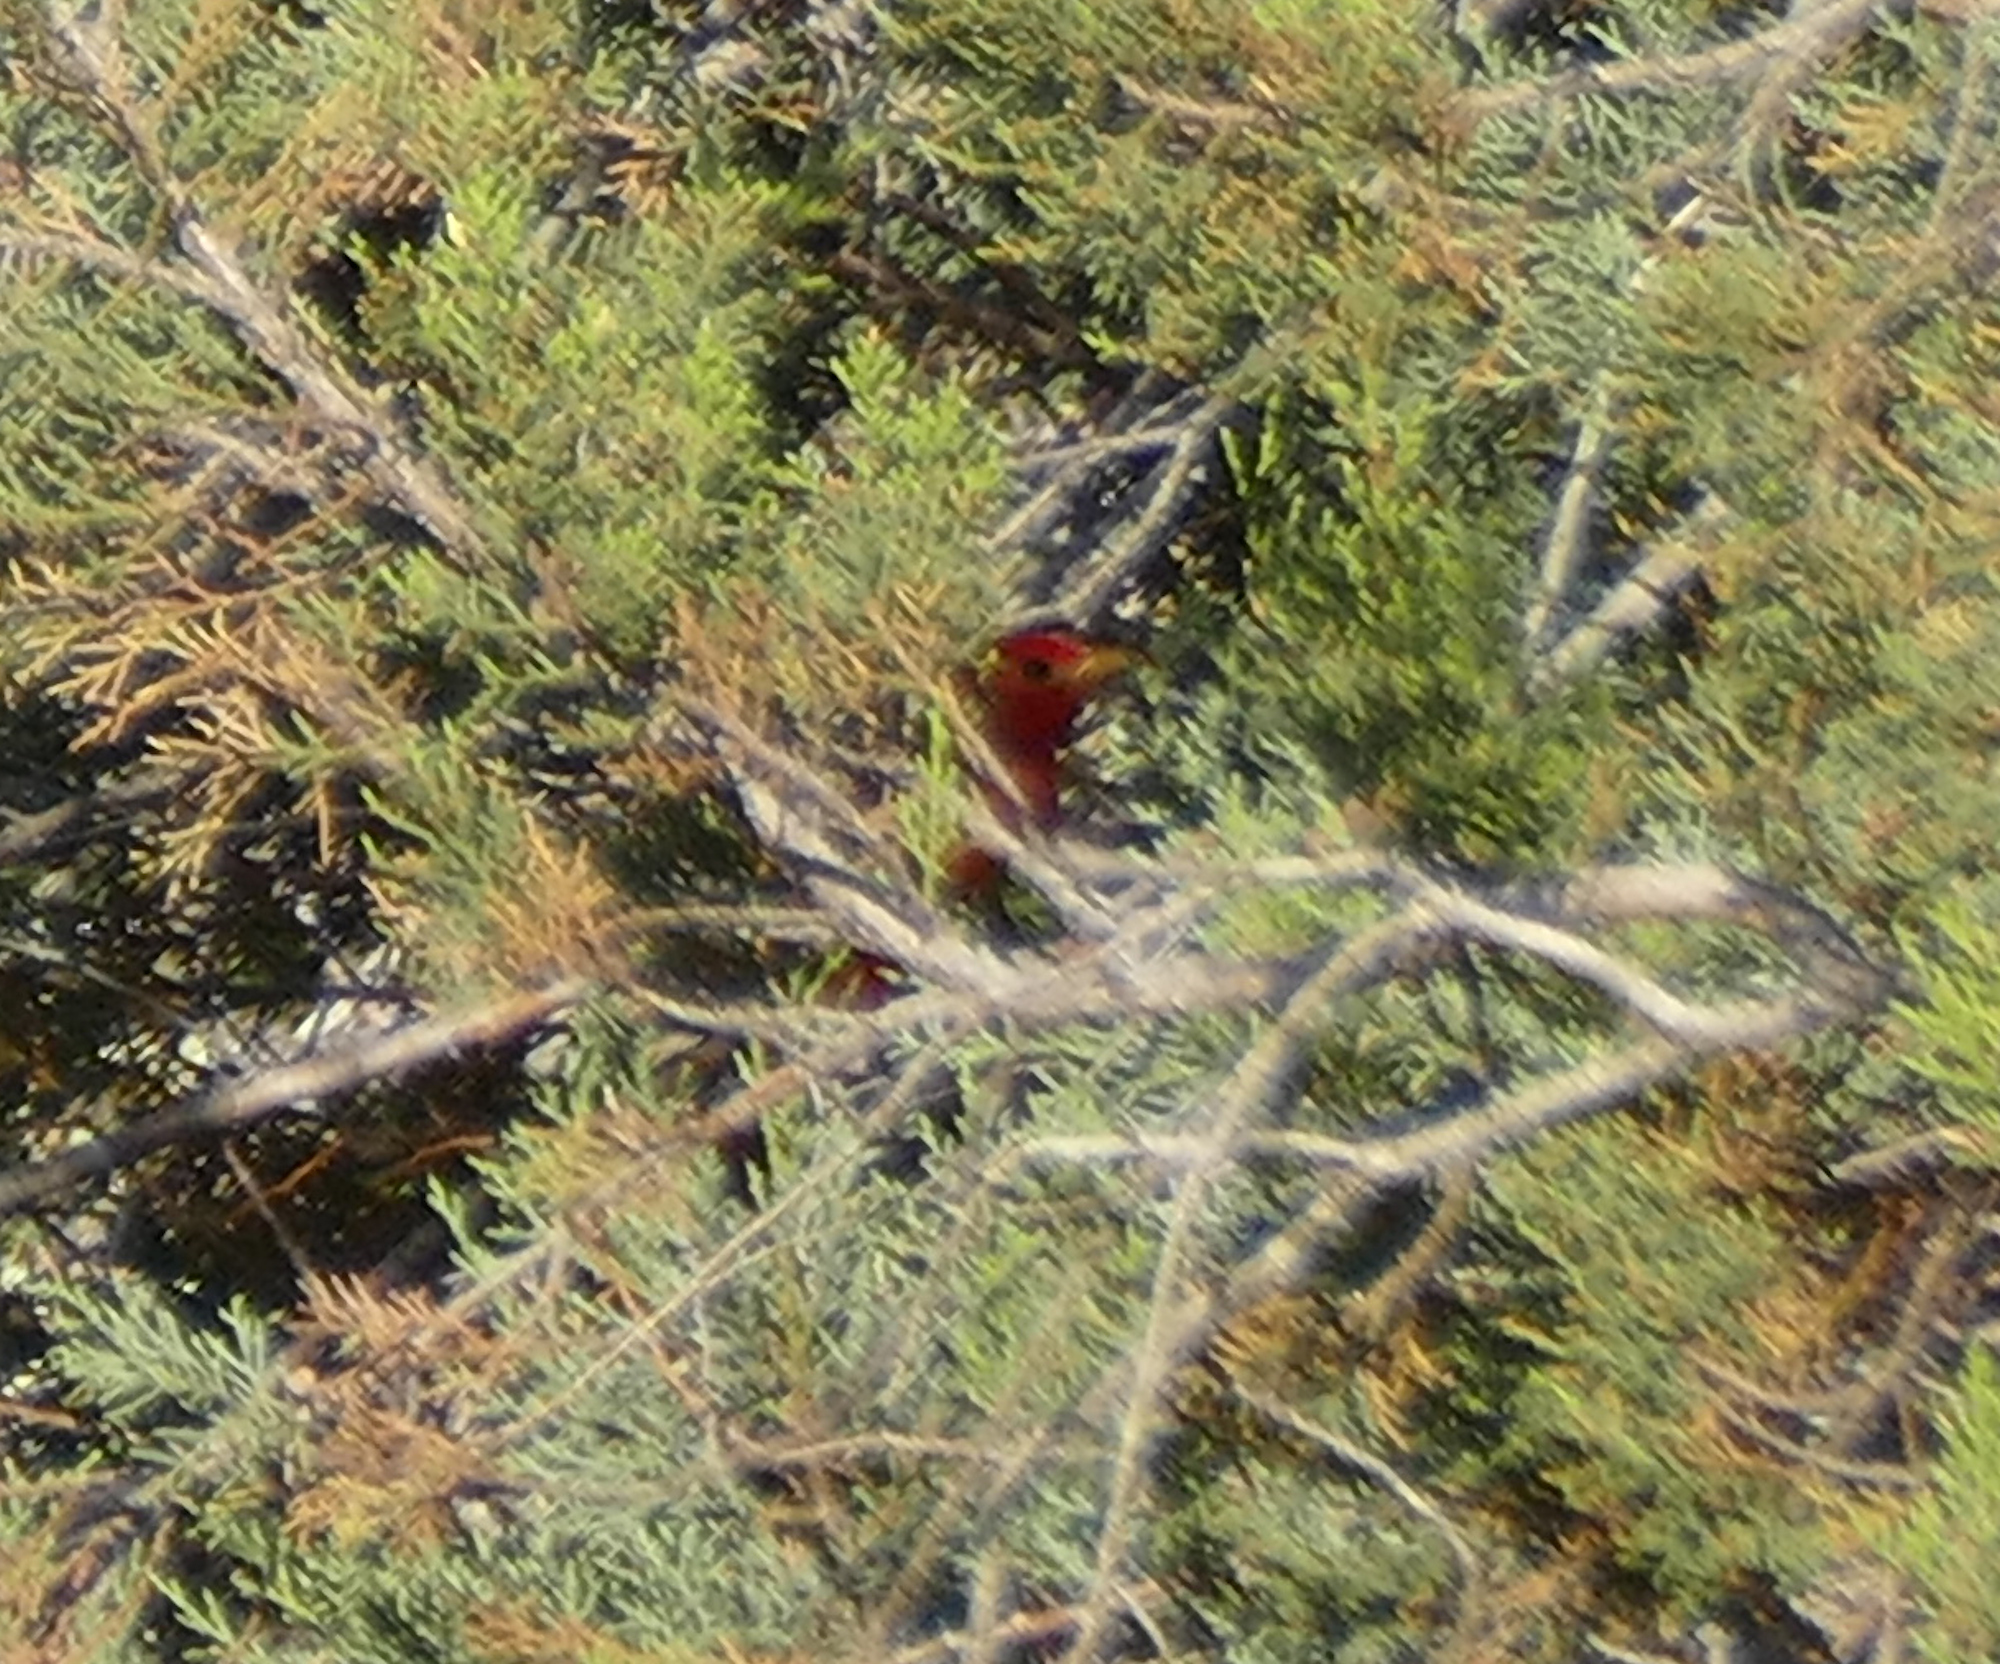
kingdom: Animalia
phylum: Chordata
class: Aves
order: Passeriformes
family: Cardinalidae
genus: Piranga
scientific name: Piranga rubra
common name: Summer tanager
